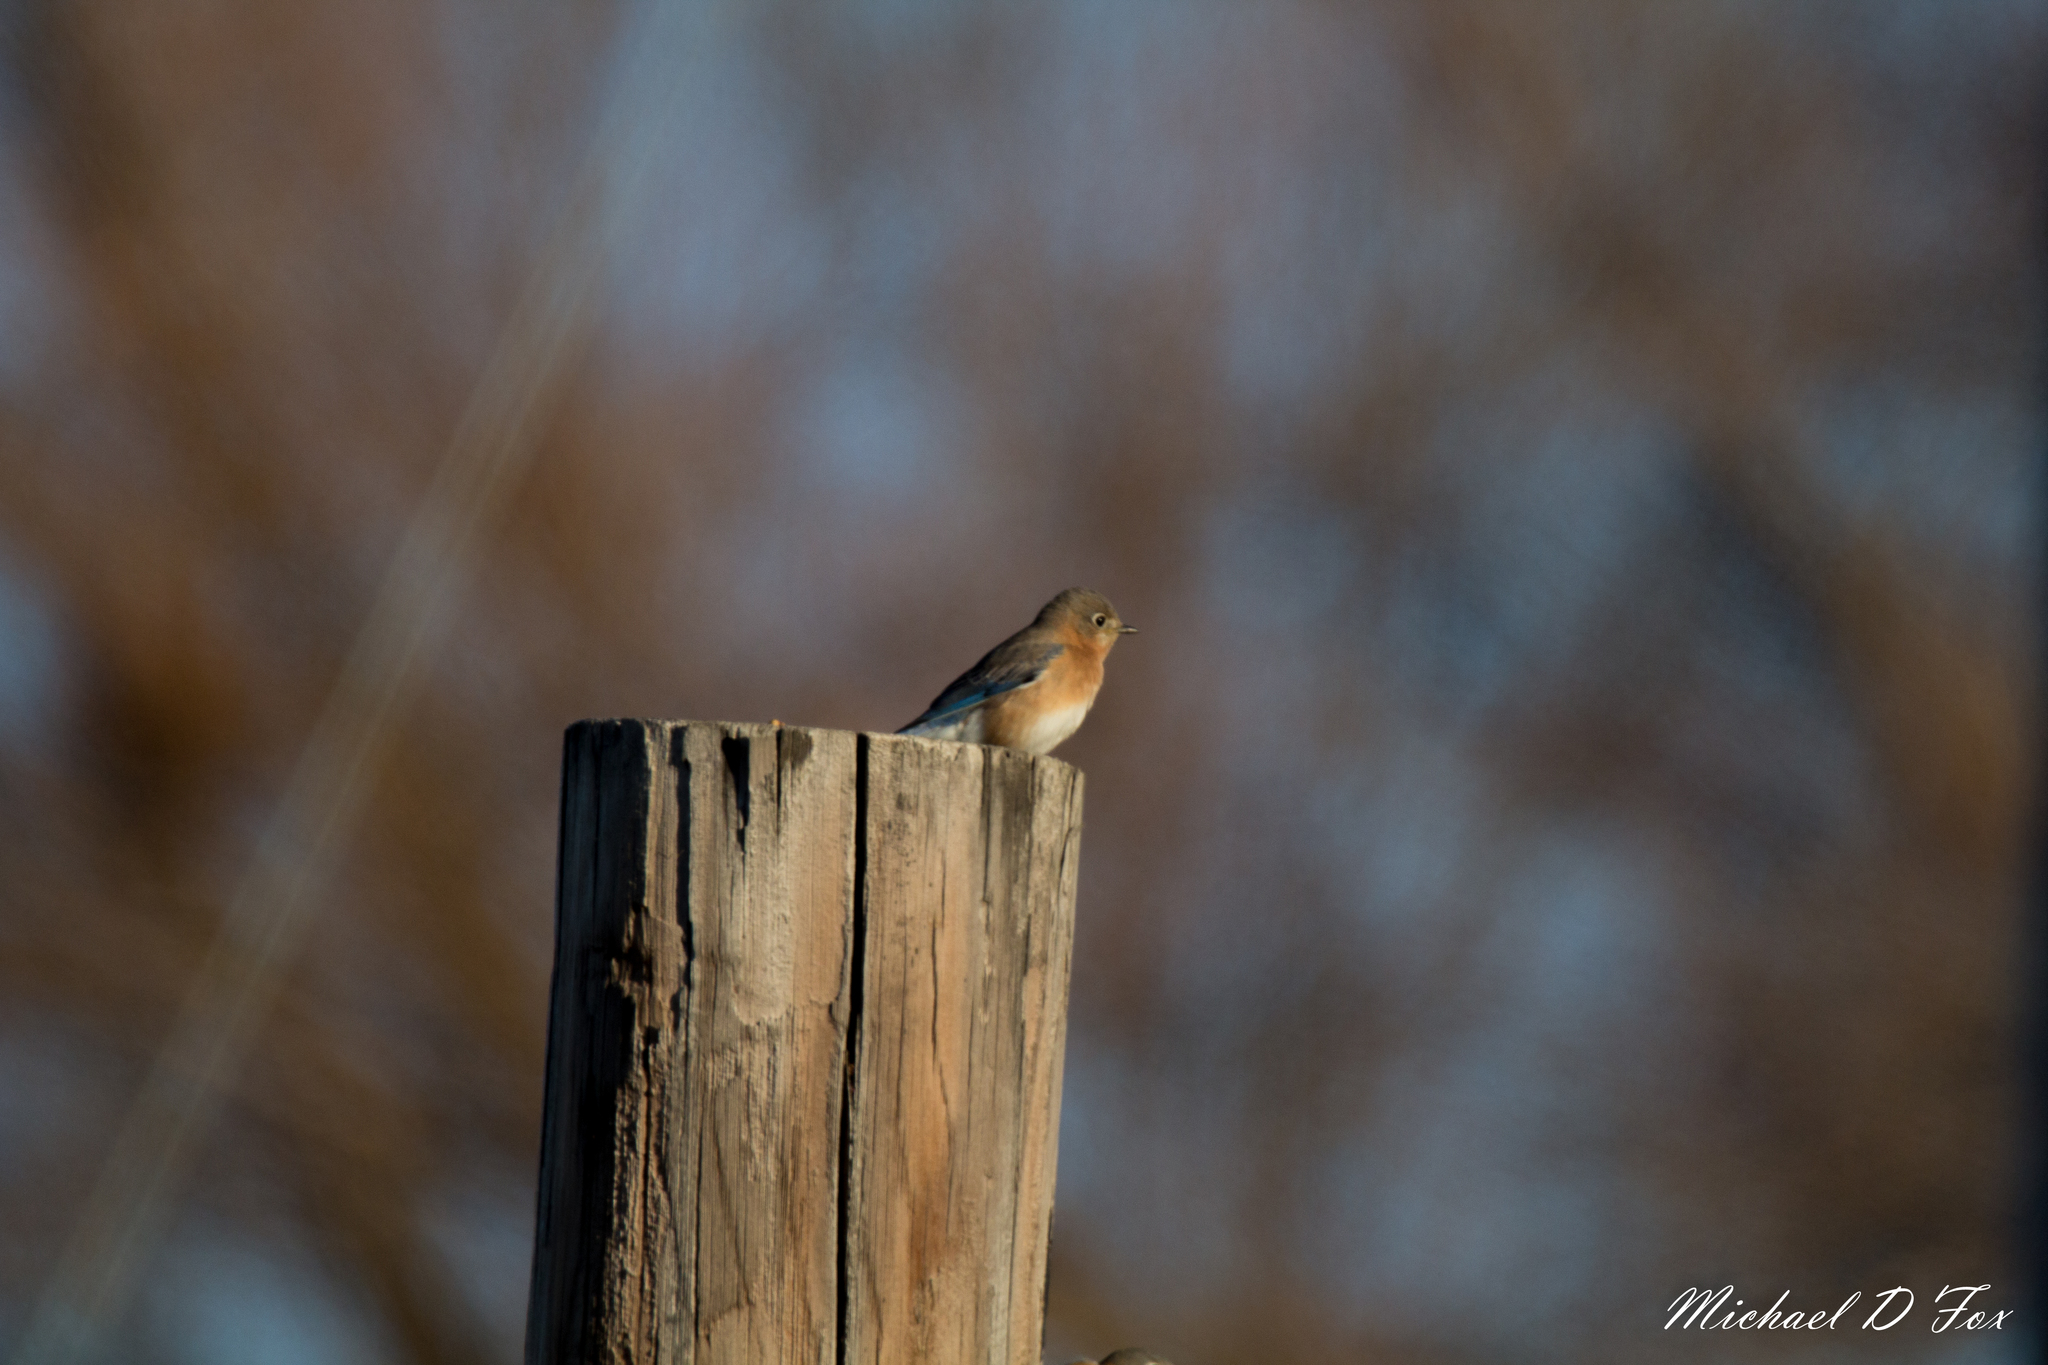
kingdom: Animalia
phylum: Chordata
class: Aves
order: Passeriformes
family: Turdidae
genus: Sialia
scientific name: Sialia sialis
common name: Eastern bluebird
